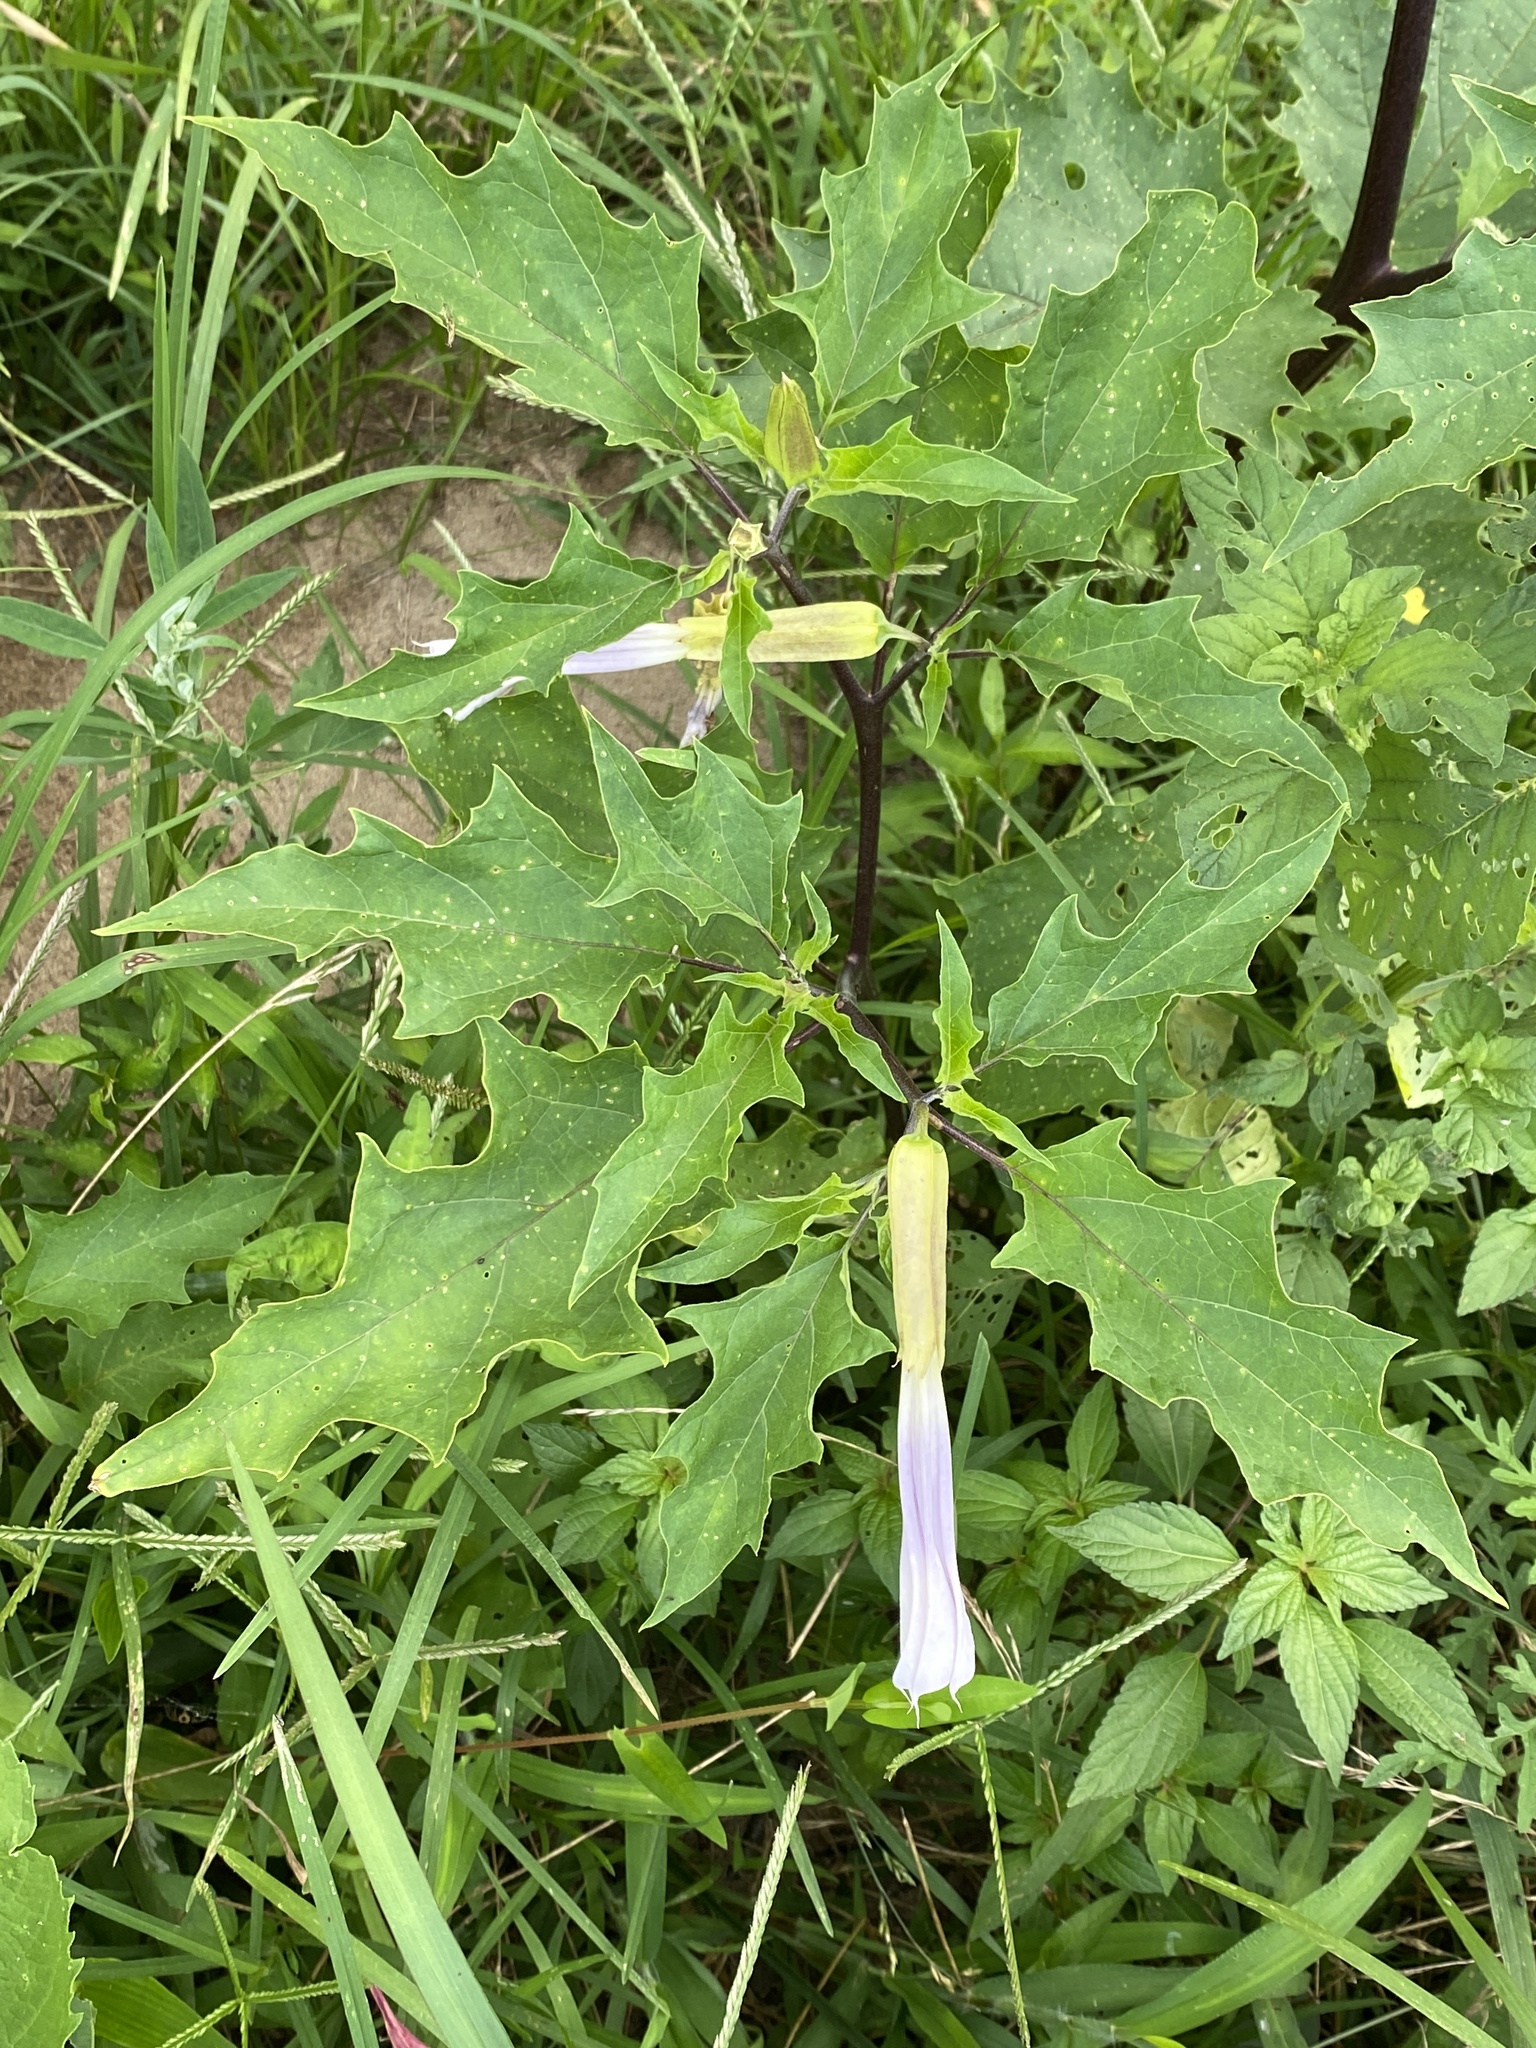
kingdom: Plantae
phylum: Tracheophyta
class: Magnoliopsida
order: Solanales
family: Solanaceae
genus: Datura
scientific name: Datura stramonium
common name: Thorn-apple
